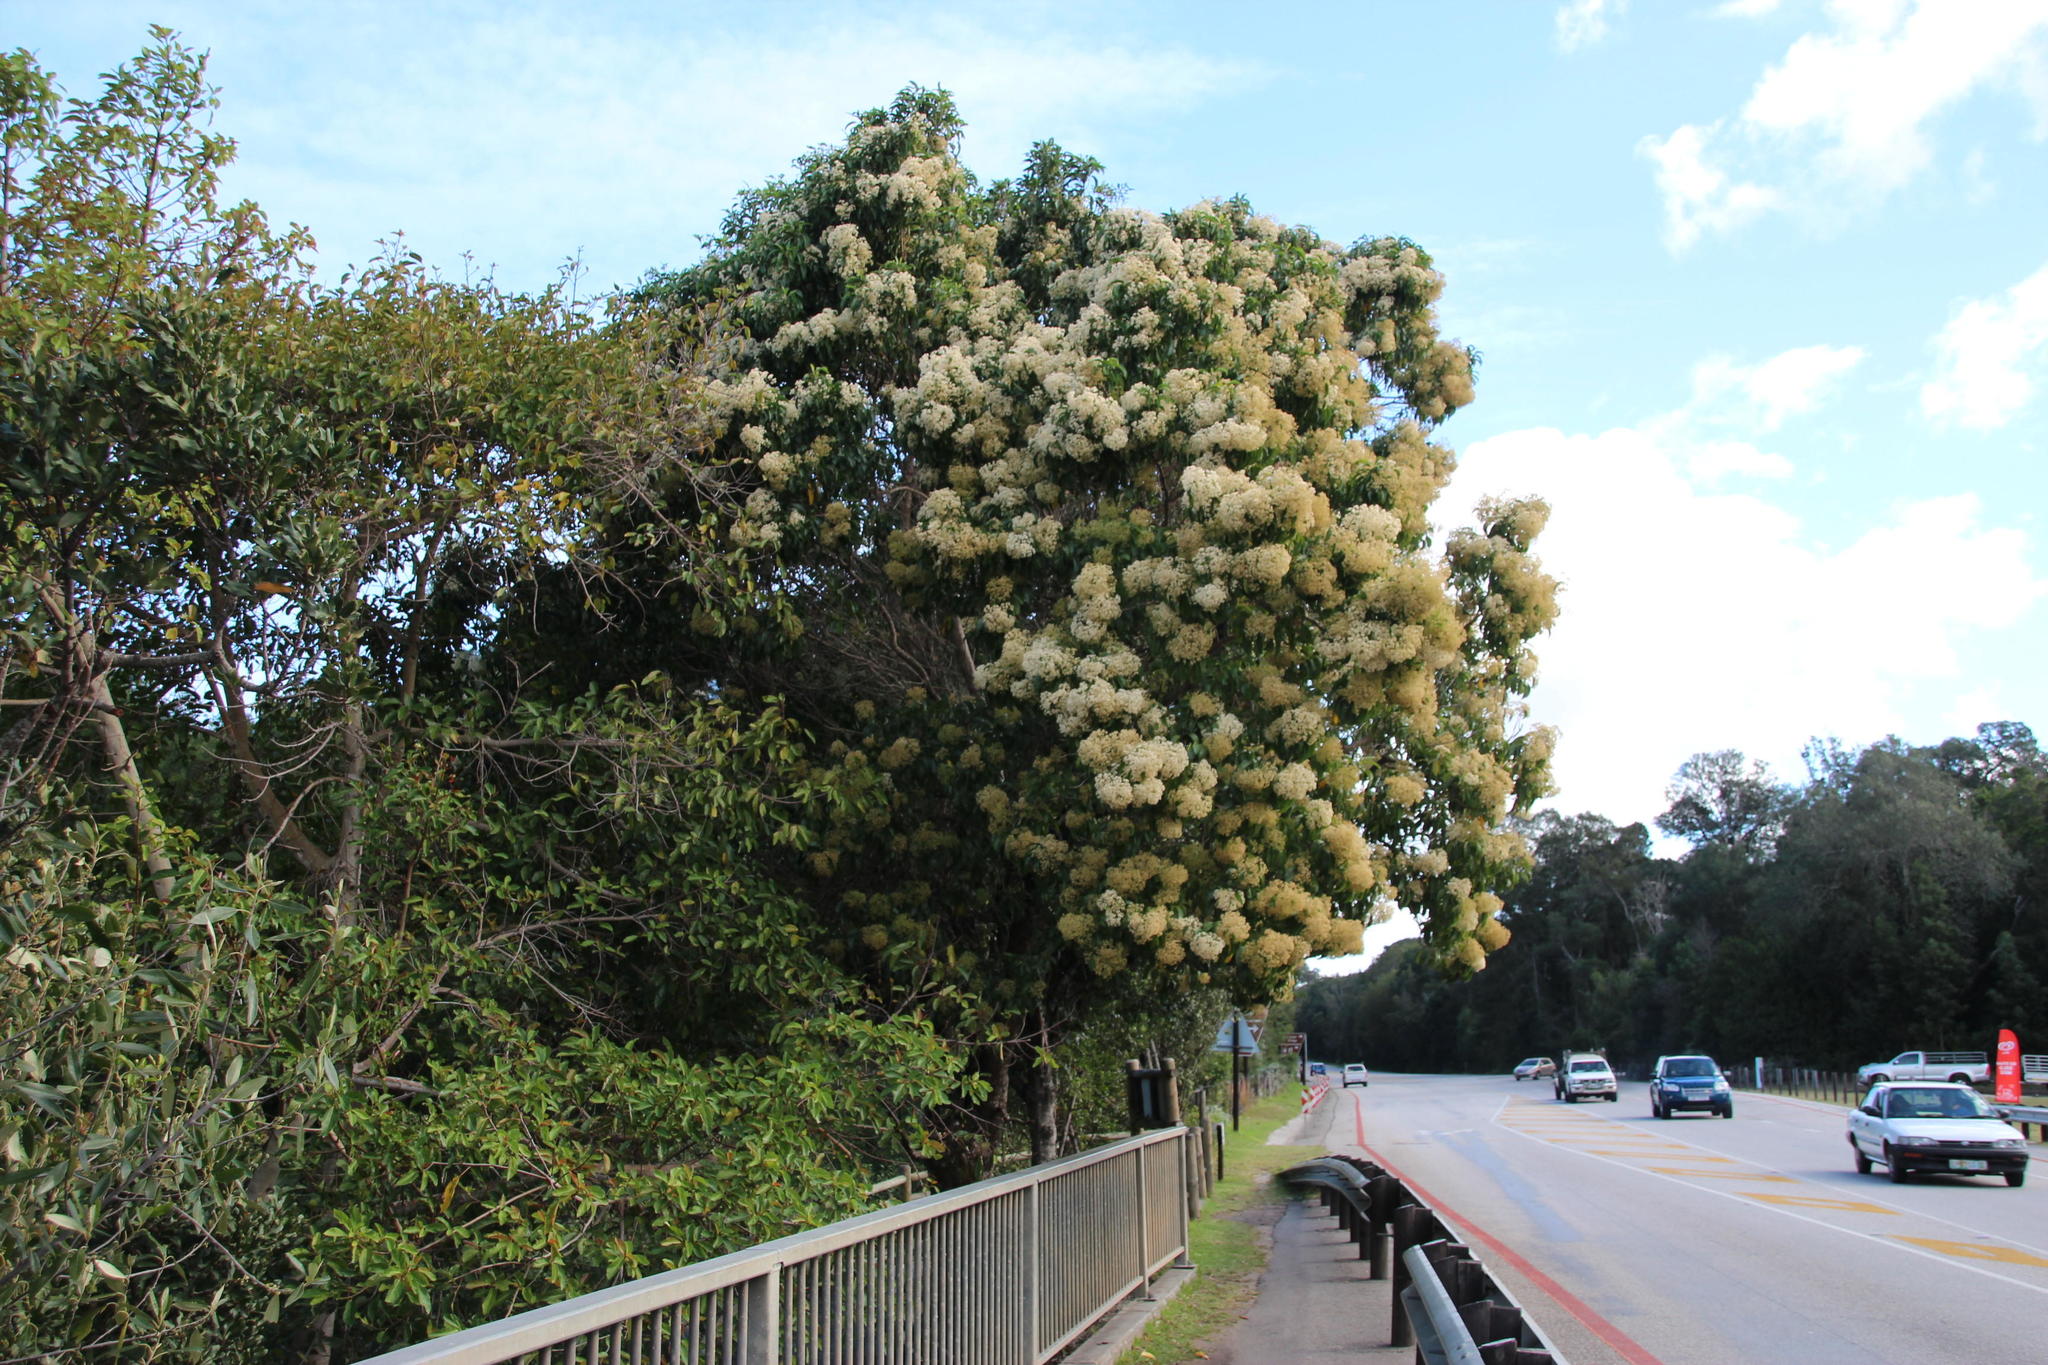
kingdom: Plantae
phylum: Tracheophyta
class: Magnoliopsida
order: Lamiales
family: Stilbaceae
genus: Nuxia
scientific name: Nuxia floribunda
